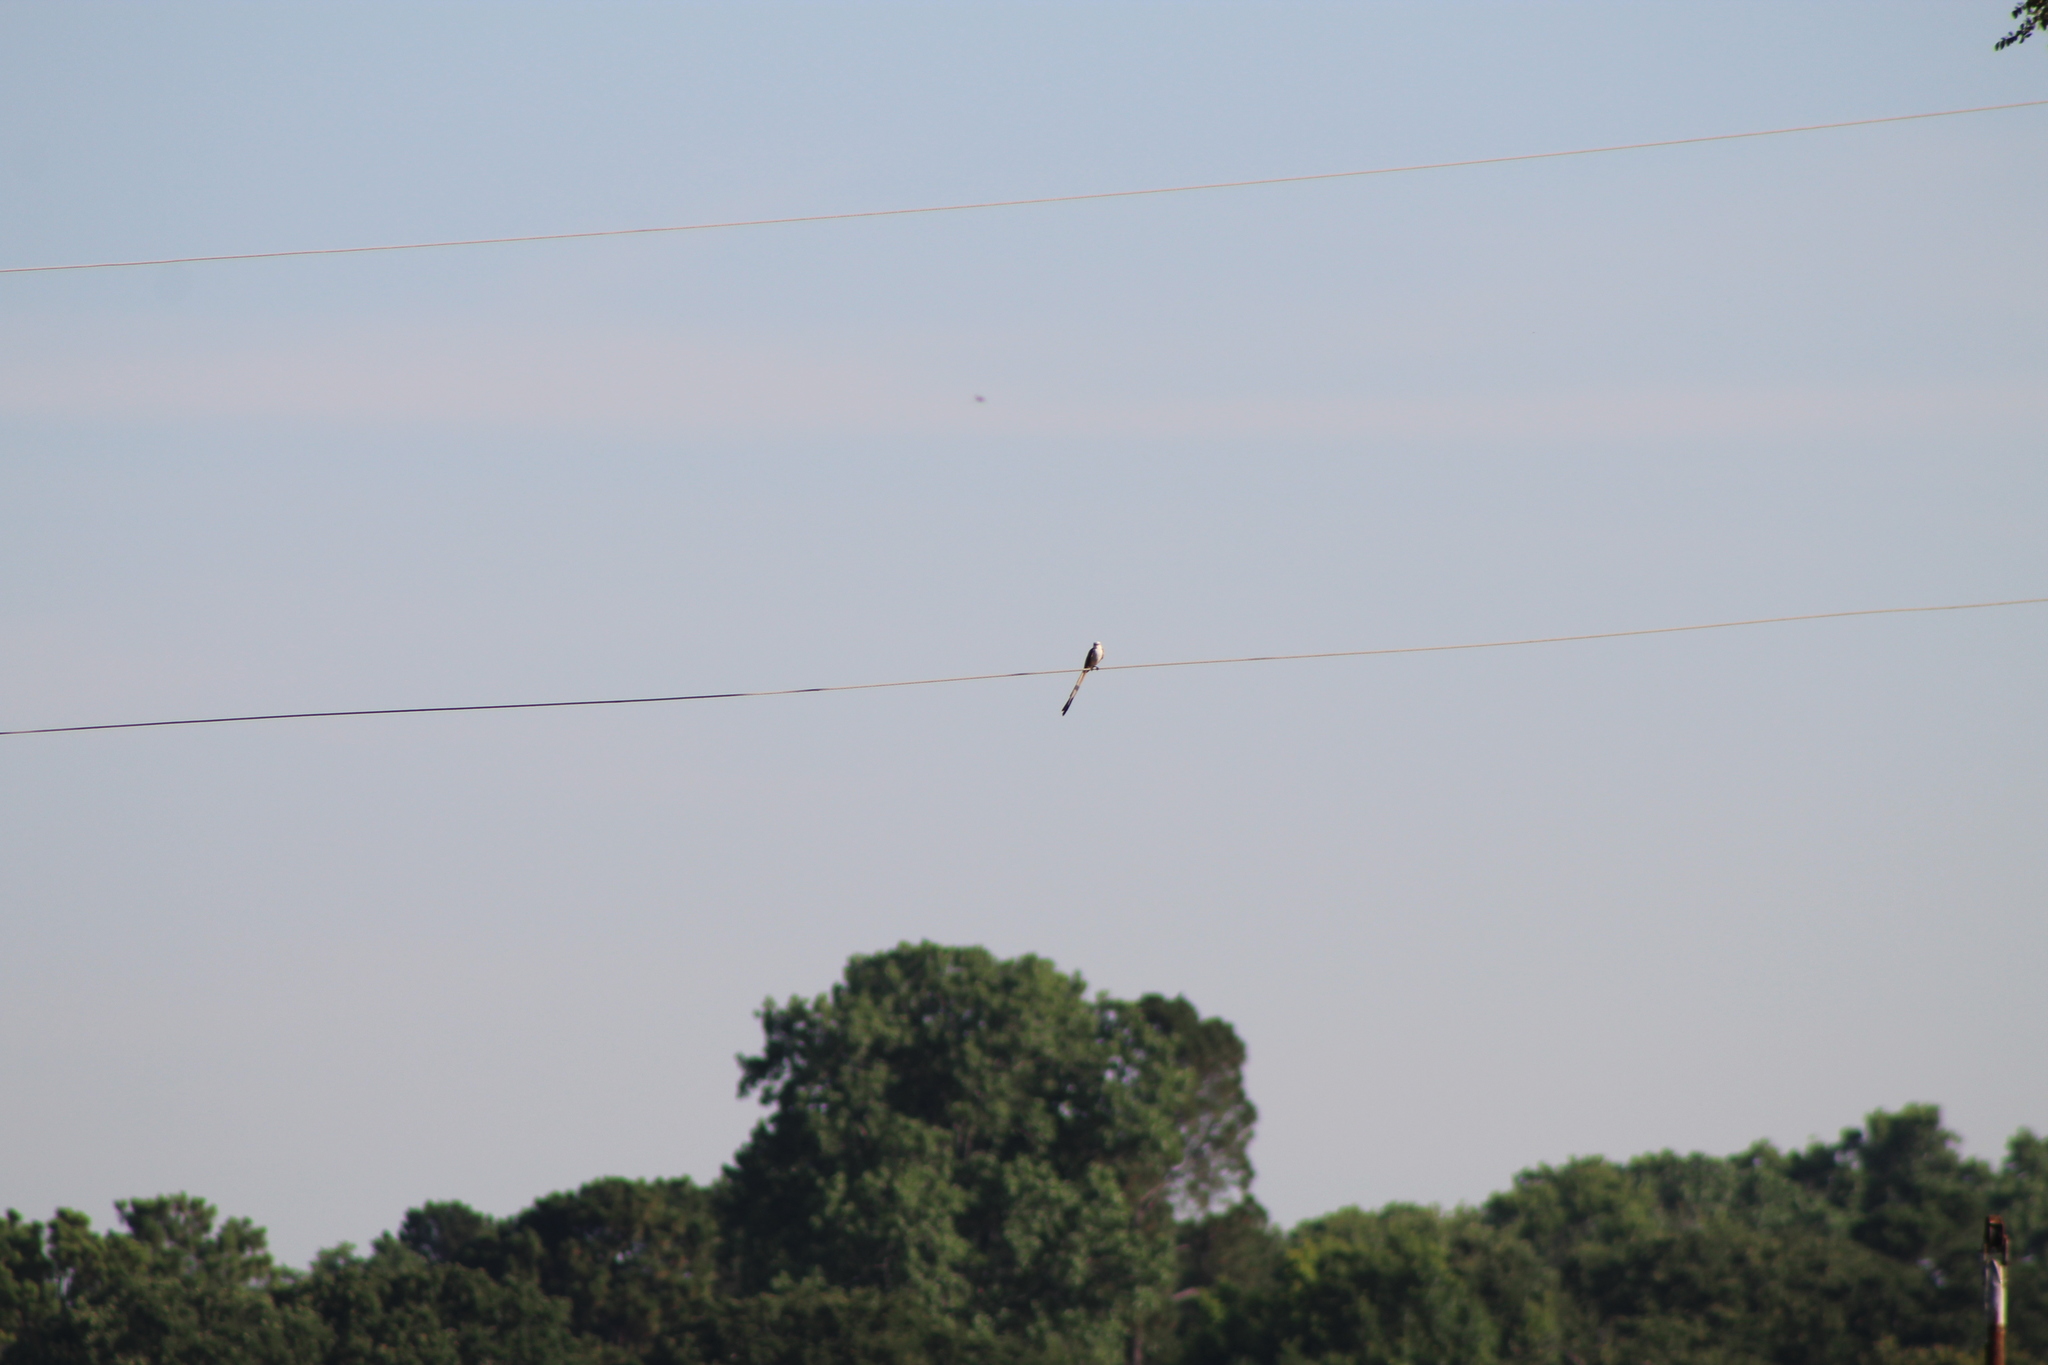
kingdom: Animalia
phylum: Chordata
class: Aves
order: Passeriformes
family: Tyrannidae
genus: Tyrannus
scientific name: Tyrannus forficatus
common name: Scissor-tailed flycatcher
